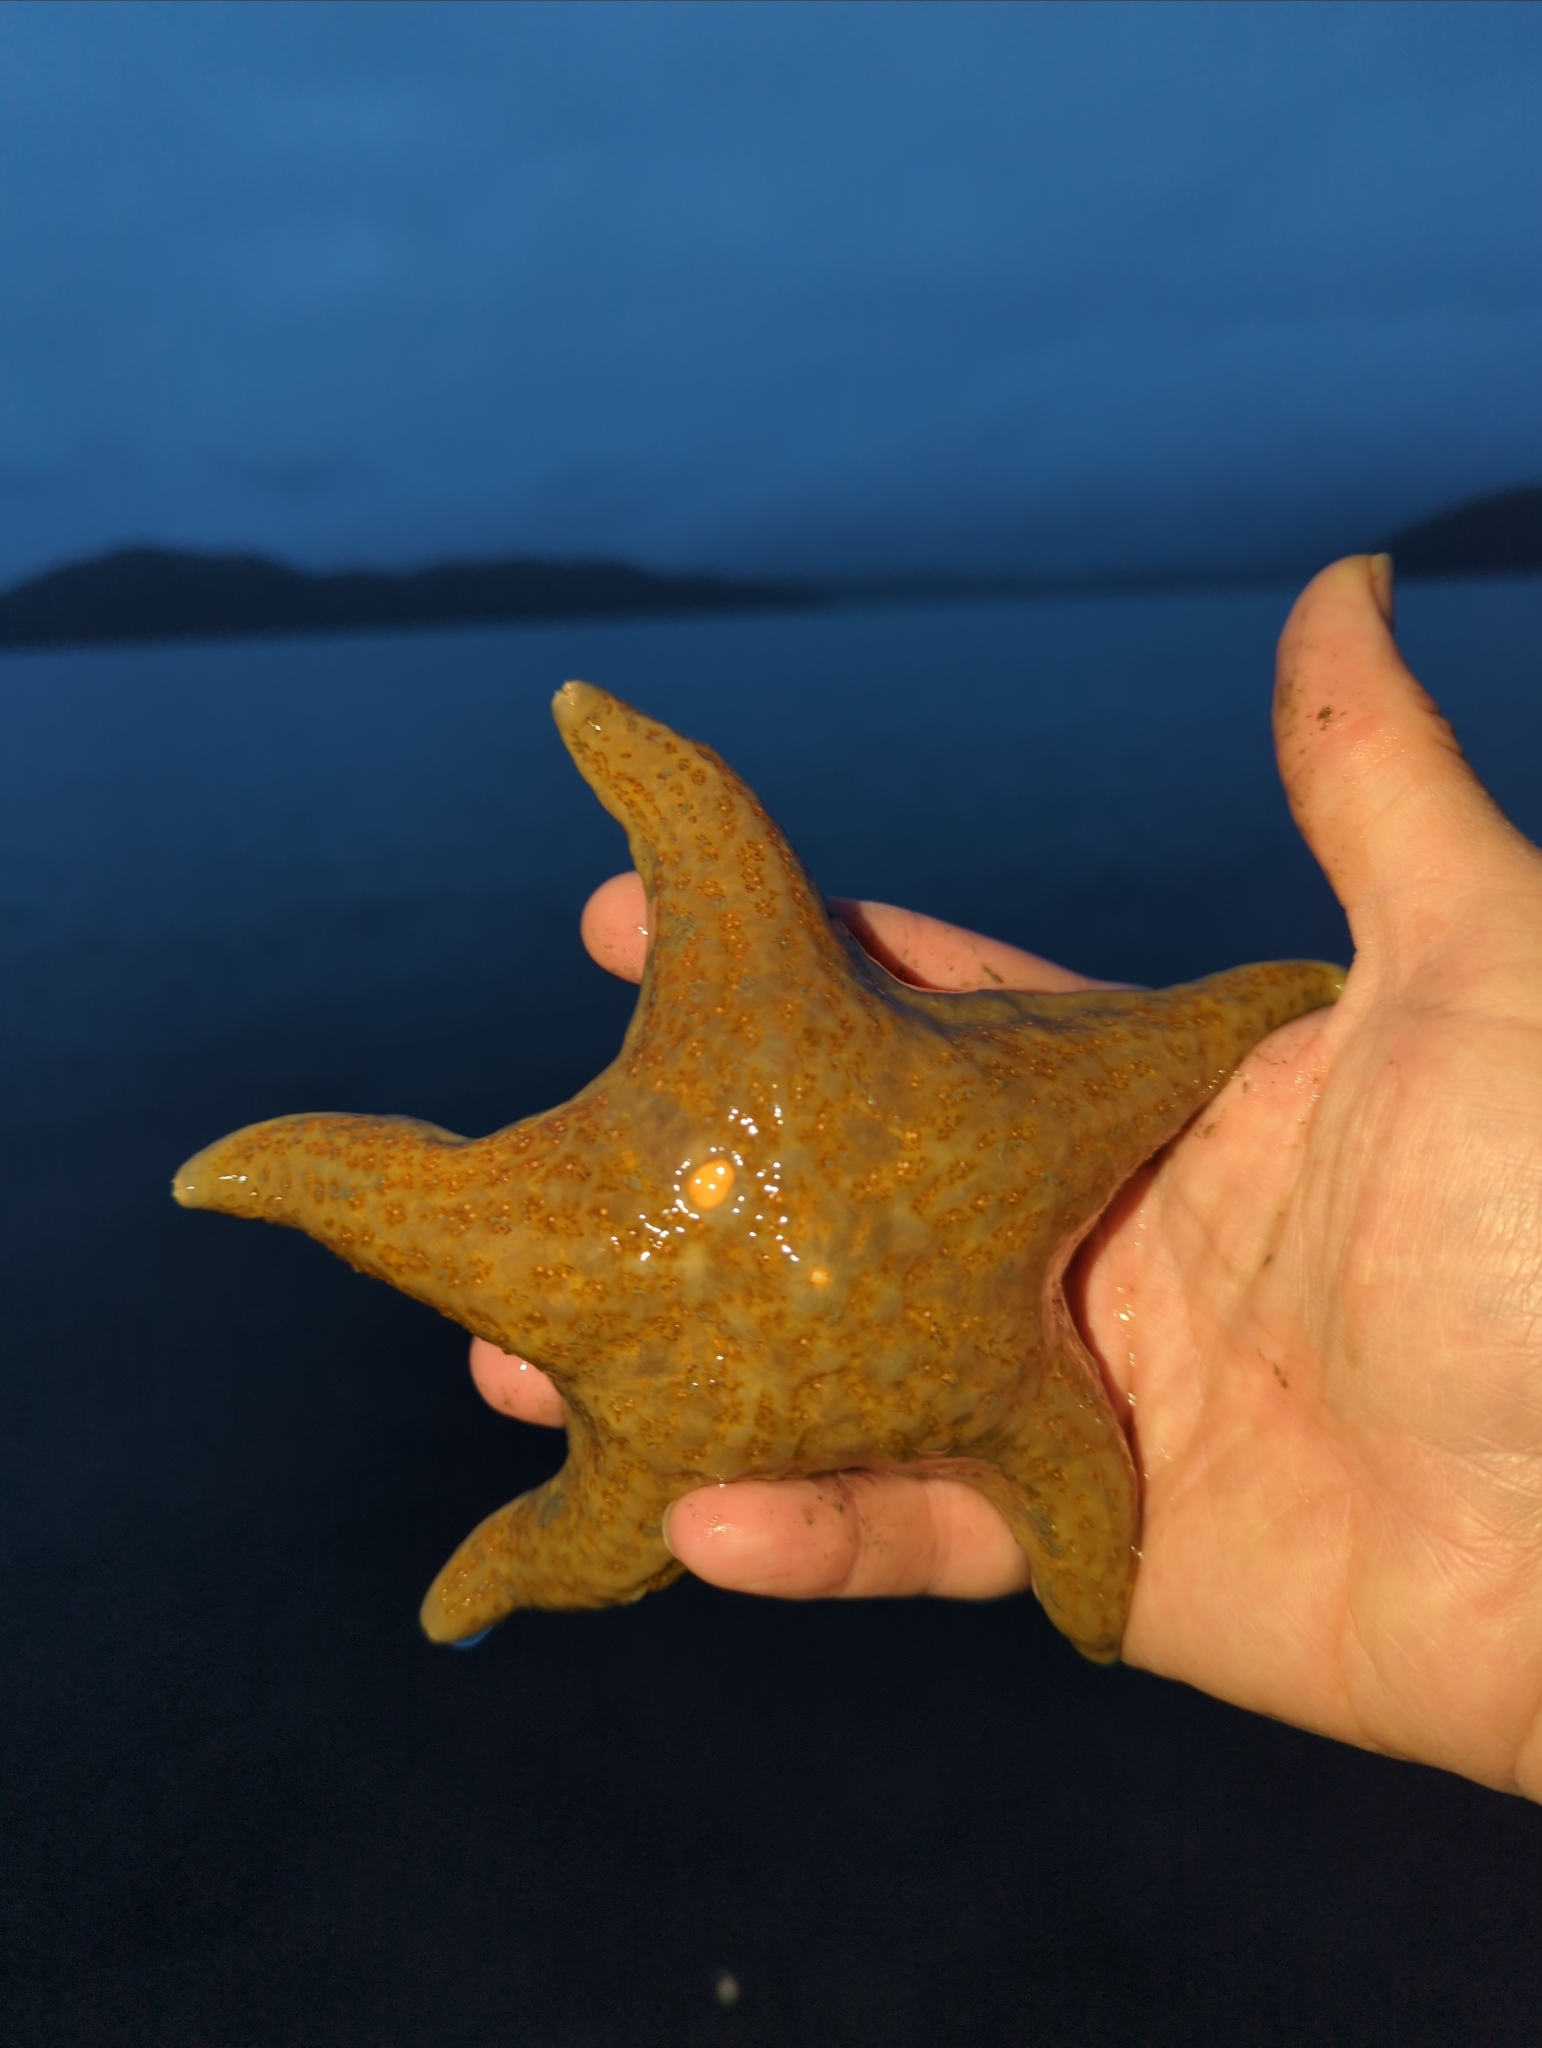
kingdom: Animalia
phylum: Echinodermata
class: Asteroidea
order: Valvatida
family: Asteropseidae
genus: Dermasterias
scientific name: Dermasterias imbricata
